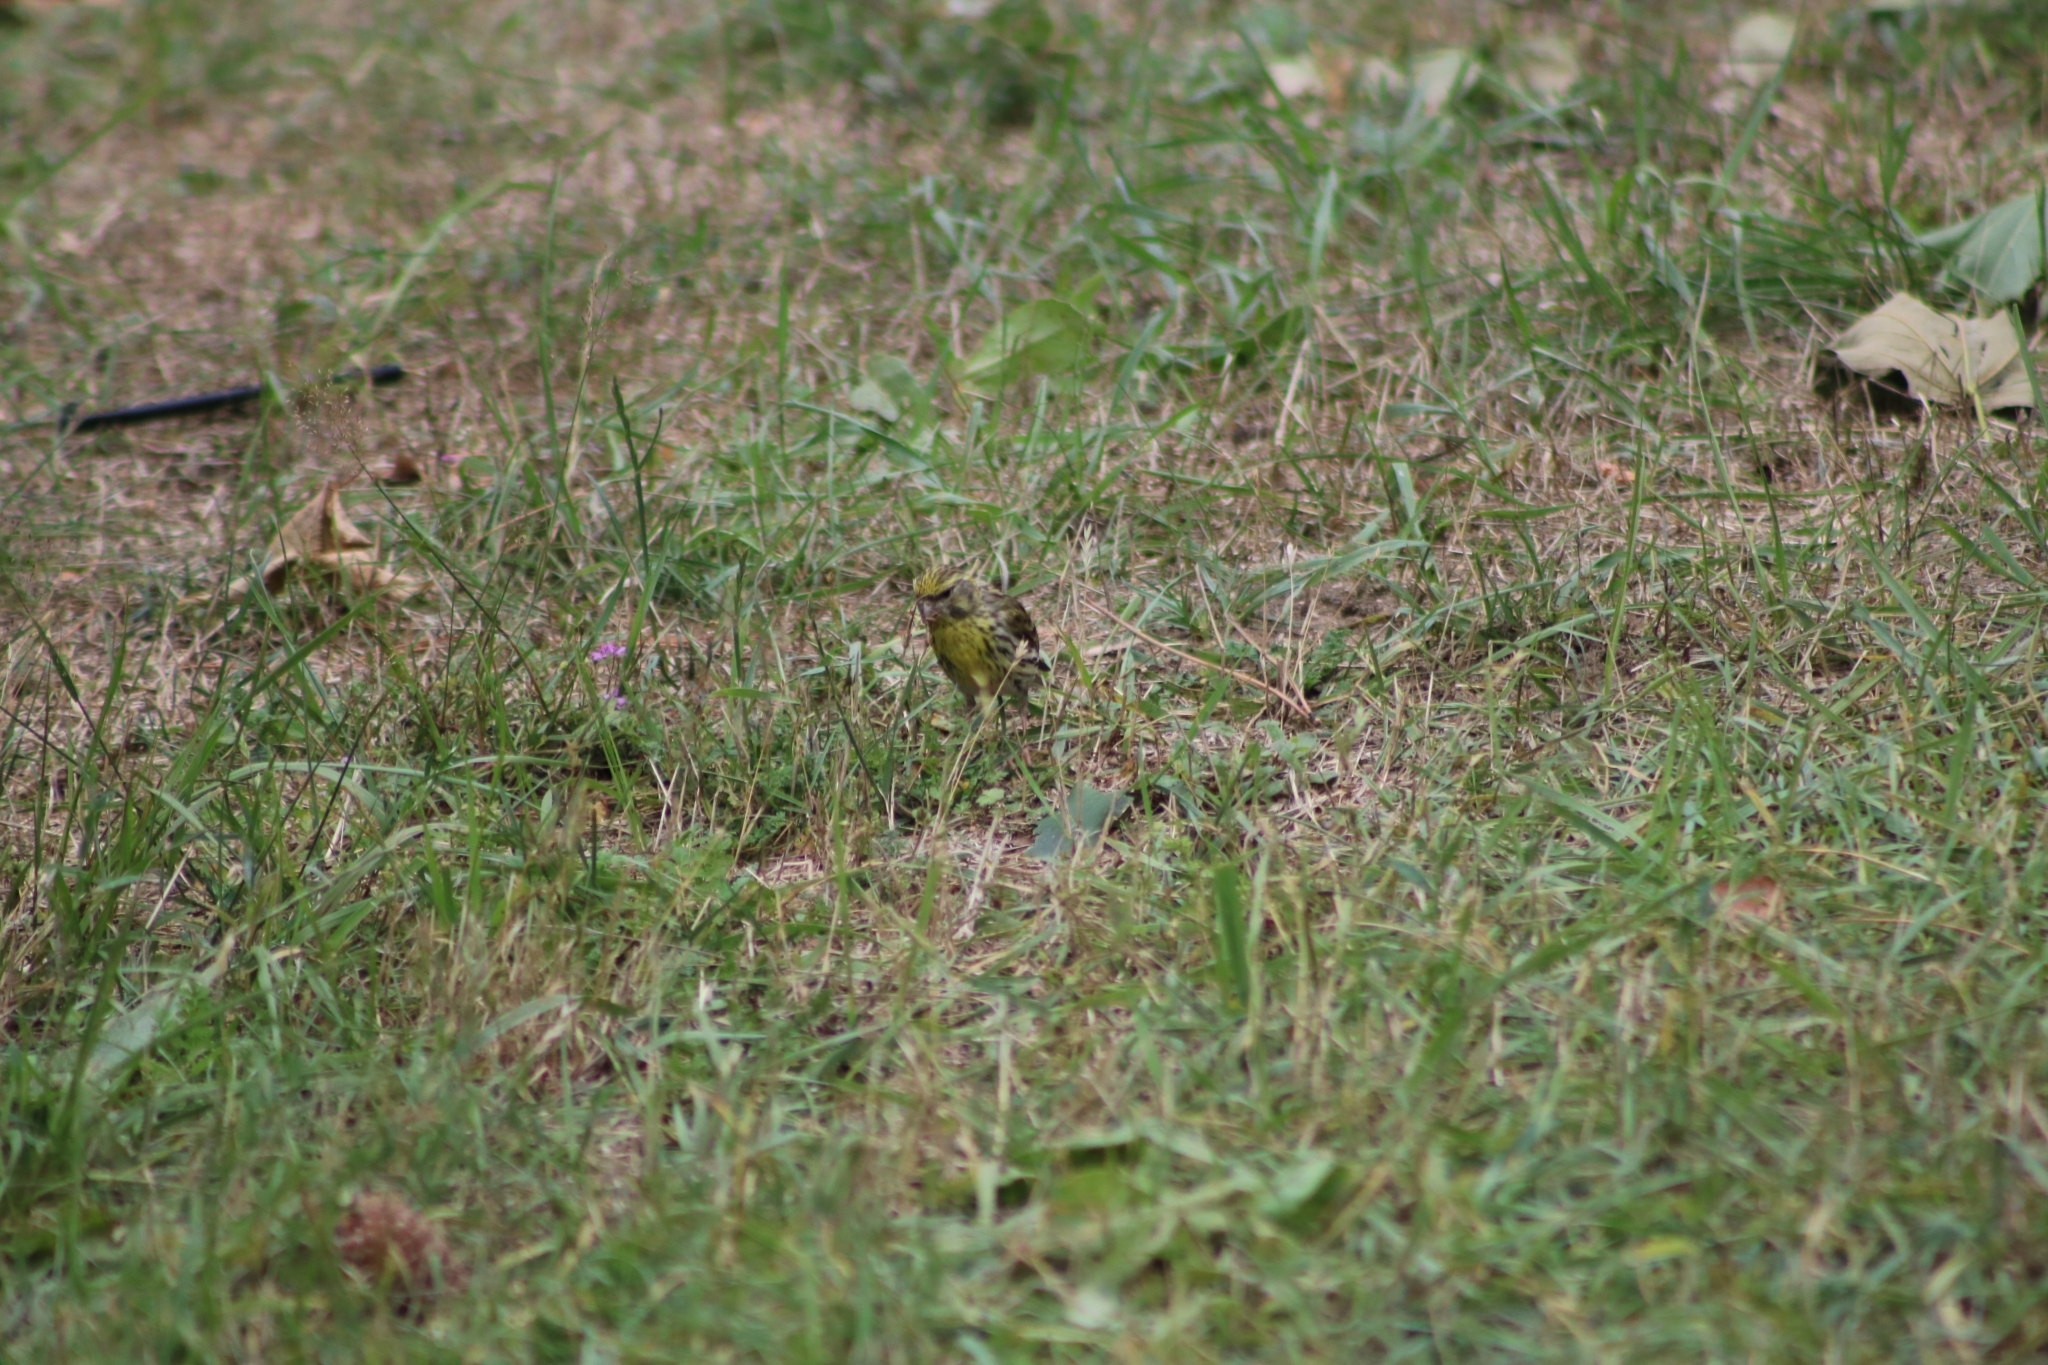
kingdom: Animalia
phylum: Chordata
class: Aves
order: Passeriformes
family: Fringillidae
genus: Serinus
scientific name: Serinus serinus
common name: European serin
